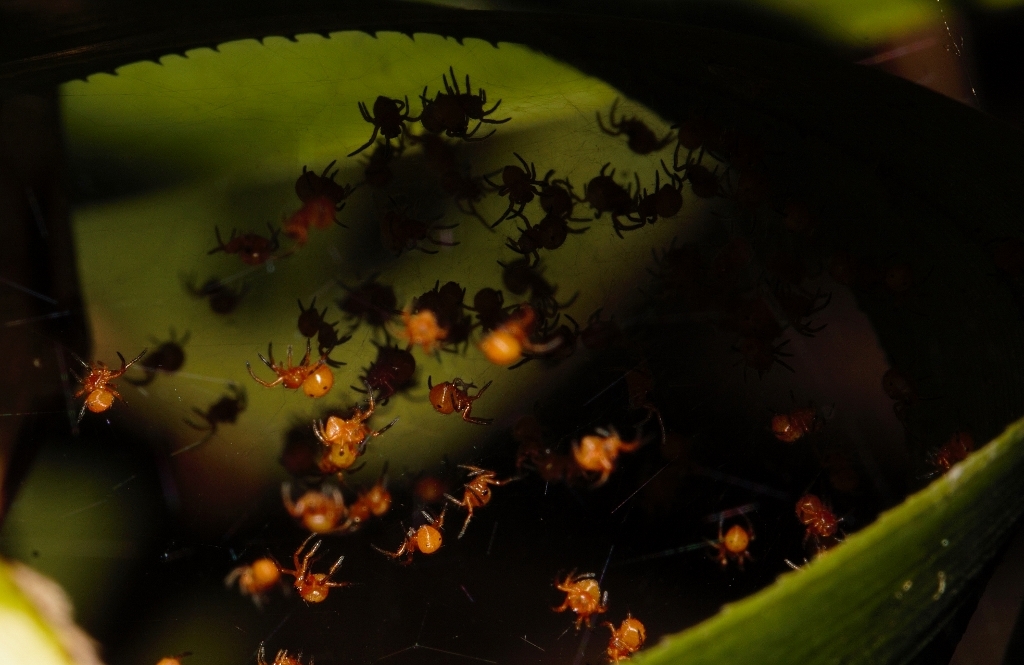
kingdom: Animalia
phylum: Arthropoda
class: Arachnida
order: Araneae
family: Araneidae
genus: Neoscona
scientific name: Neoscona rufipalpis
